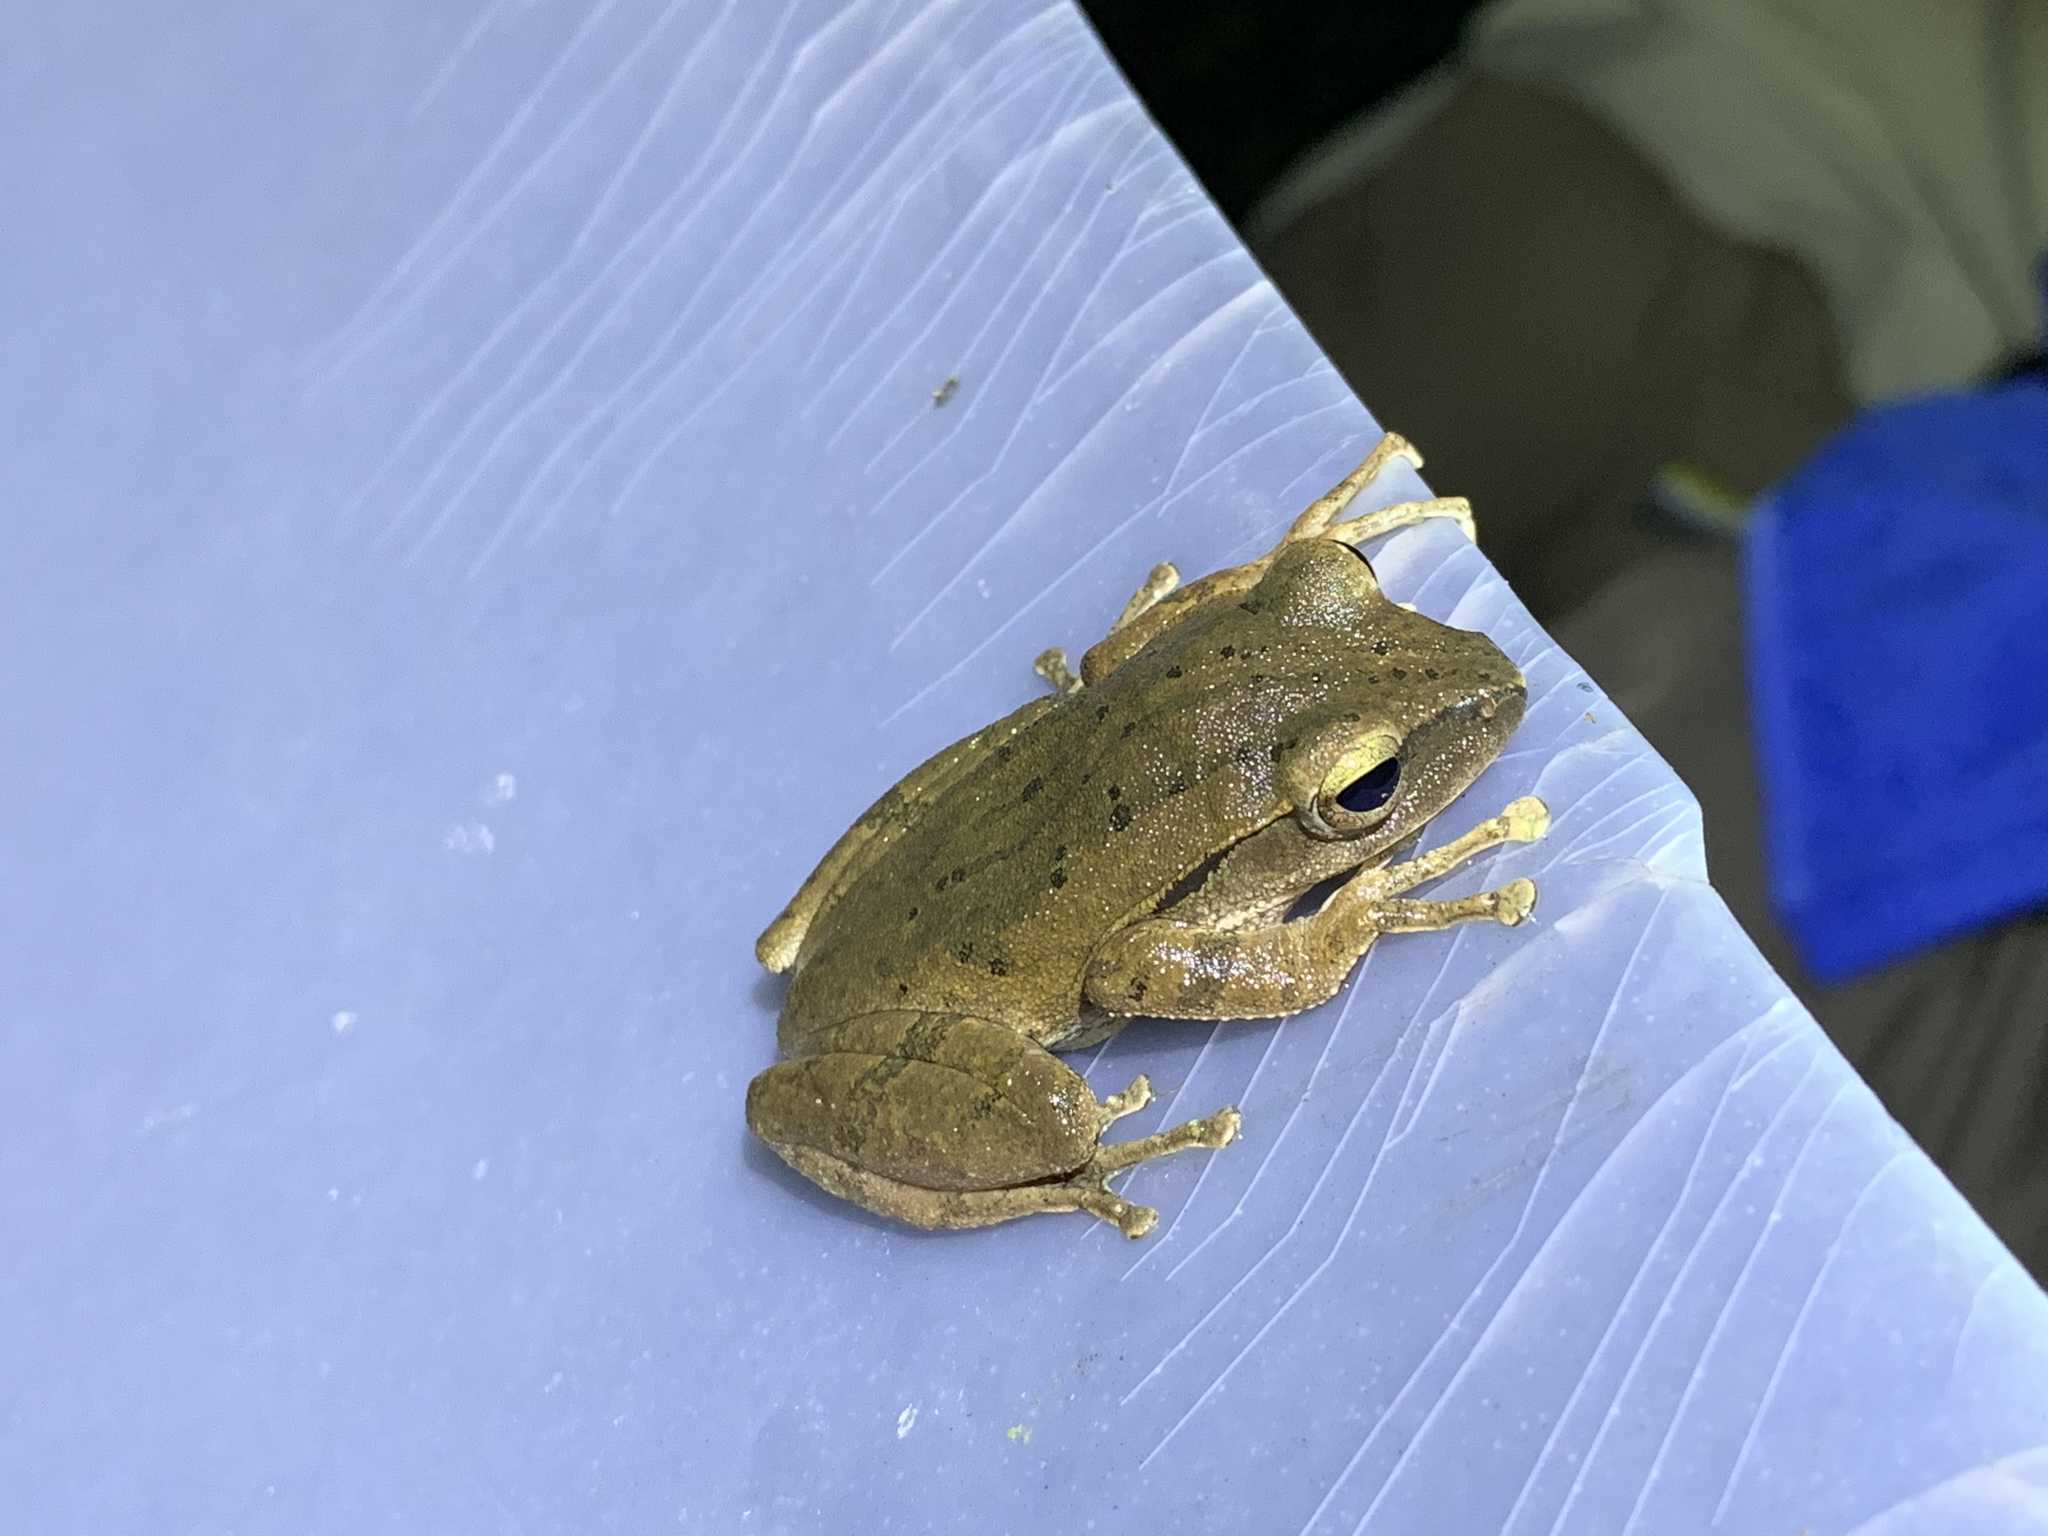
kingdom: Animalia
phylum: Chordata
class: Amphibia
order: Anura
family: Rhacophoridae
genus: Polypedates
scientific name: Polypedates braueri
